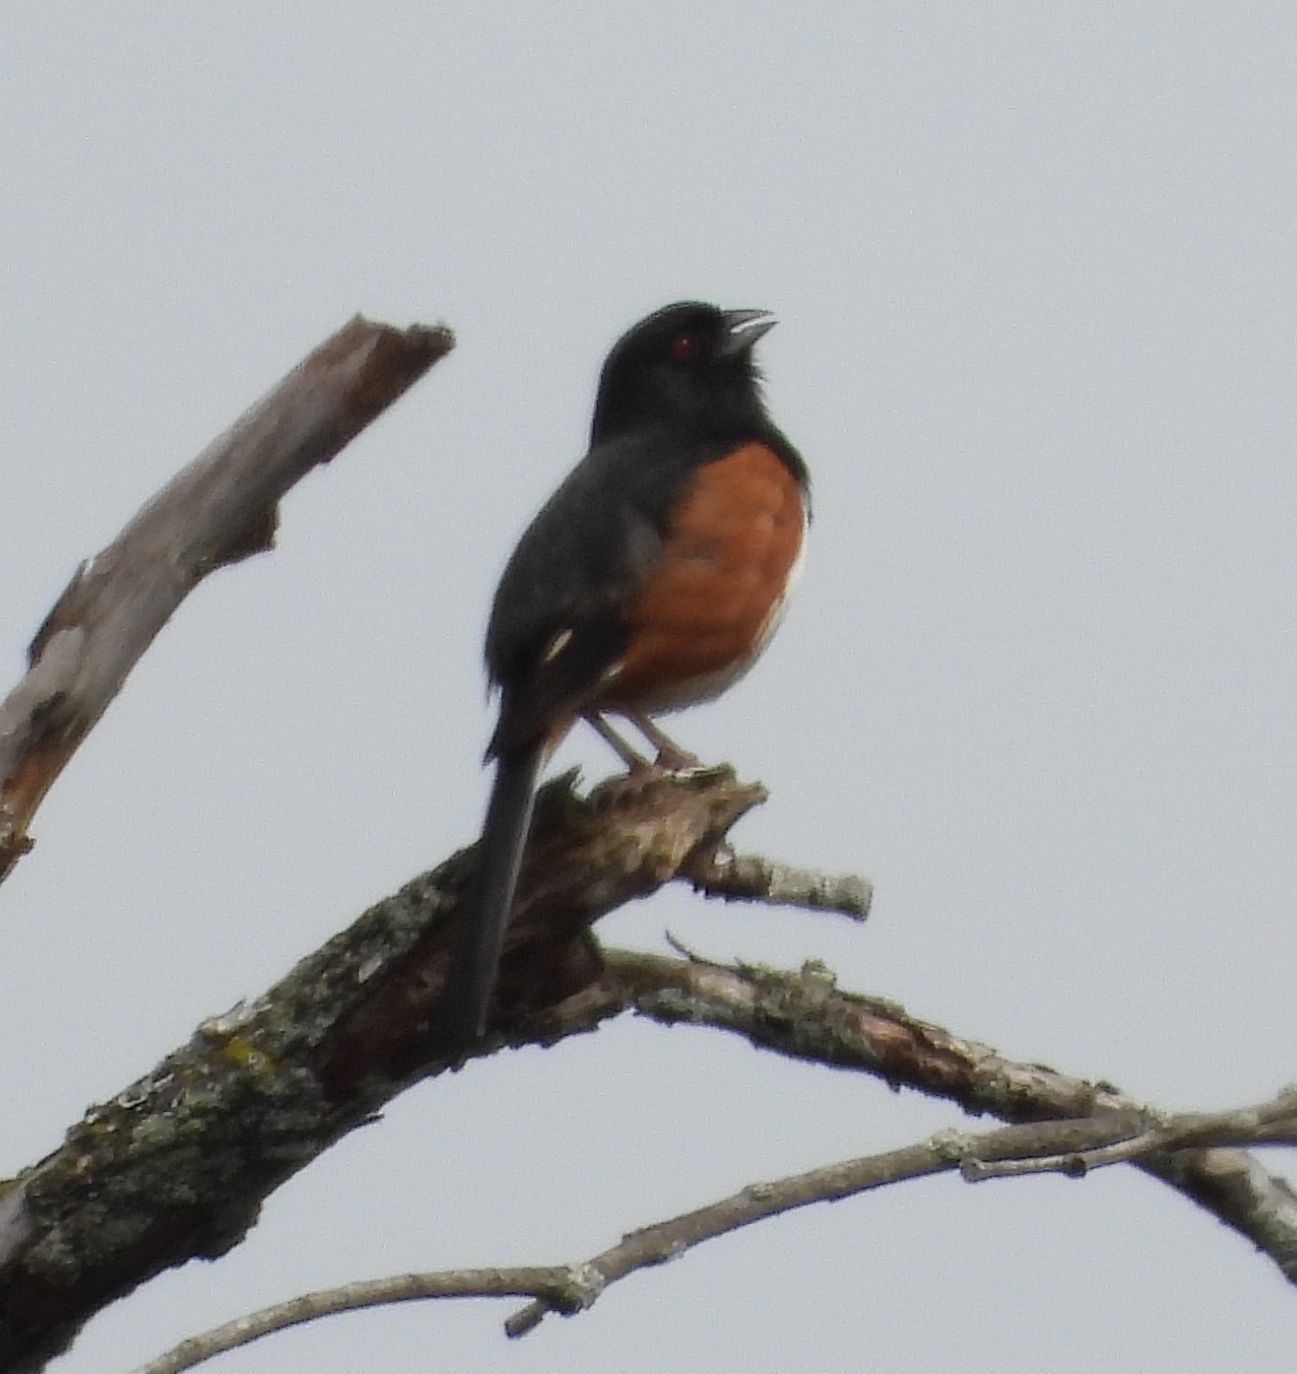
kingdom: Animalia
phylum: Chordata
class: Aves
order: Passeriformes
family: Passerellidae
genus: Pipilo
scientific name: Pipilo erythrophthalmus
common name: Eastern towhee
